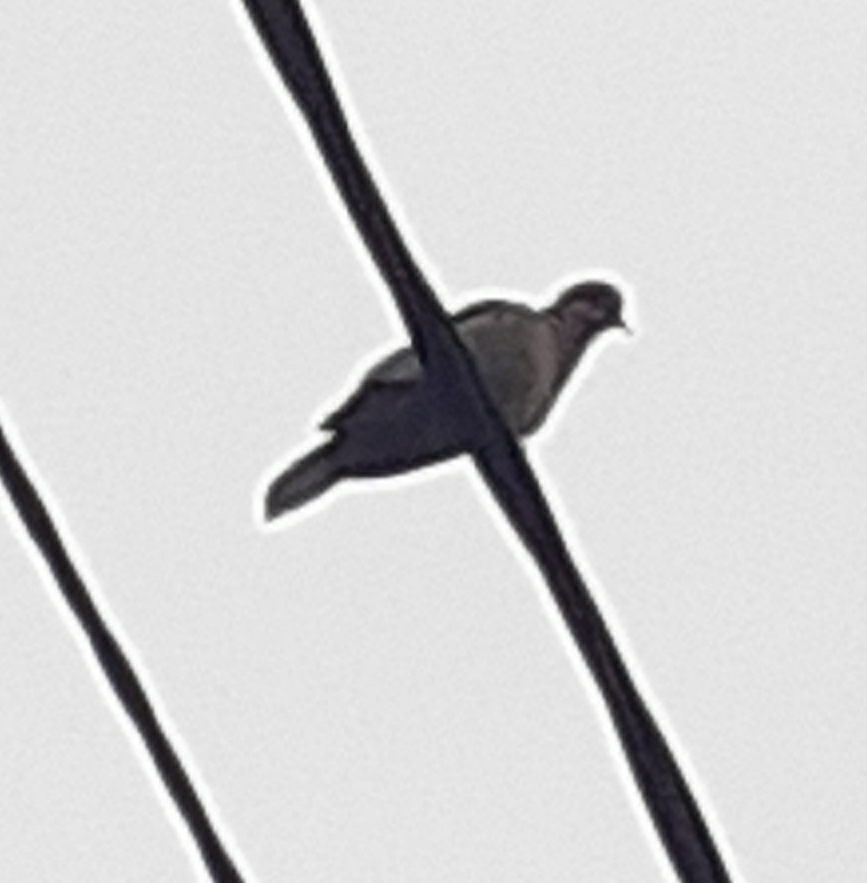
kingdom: Animalia
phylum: Chordata
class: Aves
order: Columbiformes
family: Columbidae
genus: Streptopelia
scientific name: Streptopelia decaocto
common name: Eurasian collared dove
